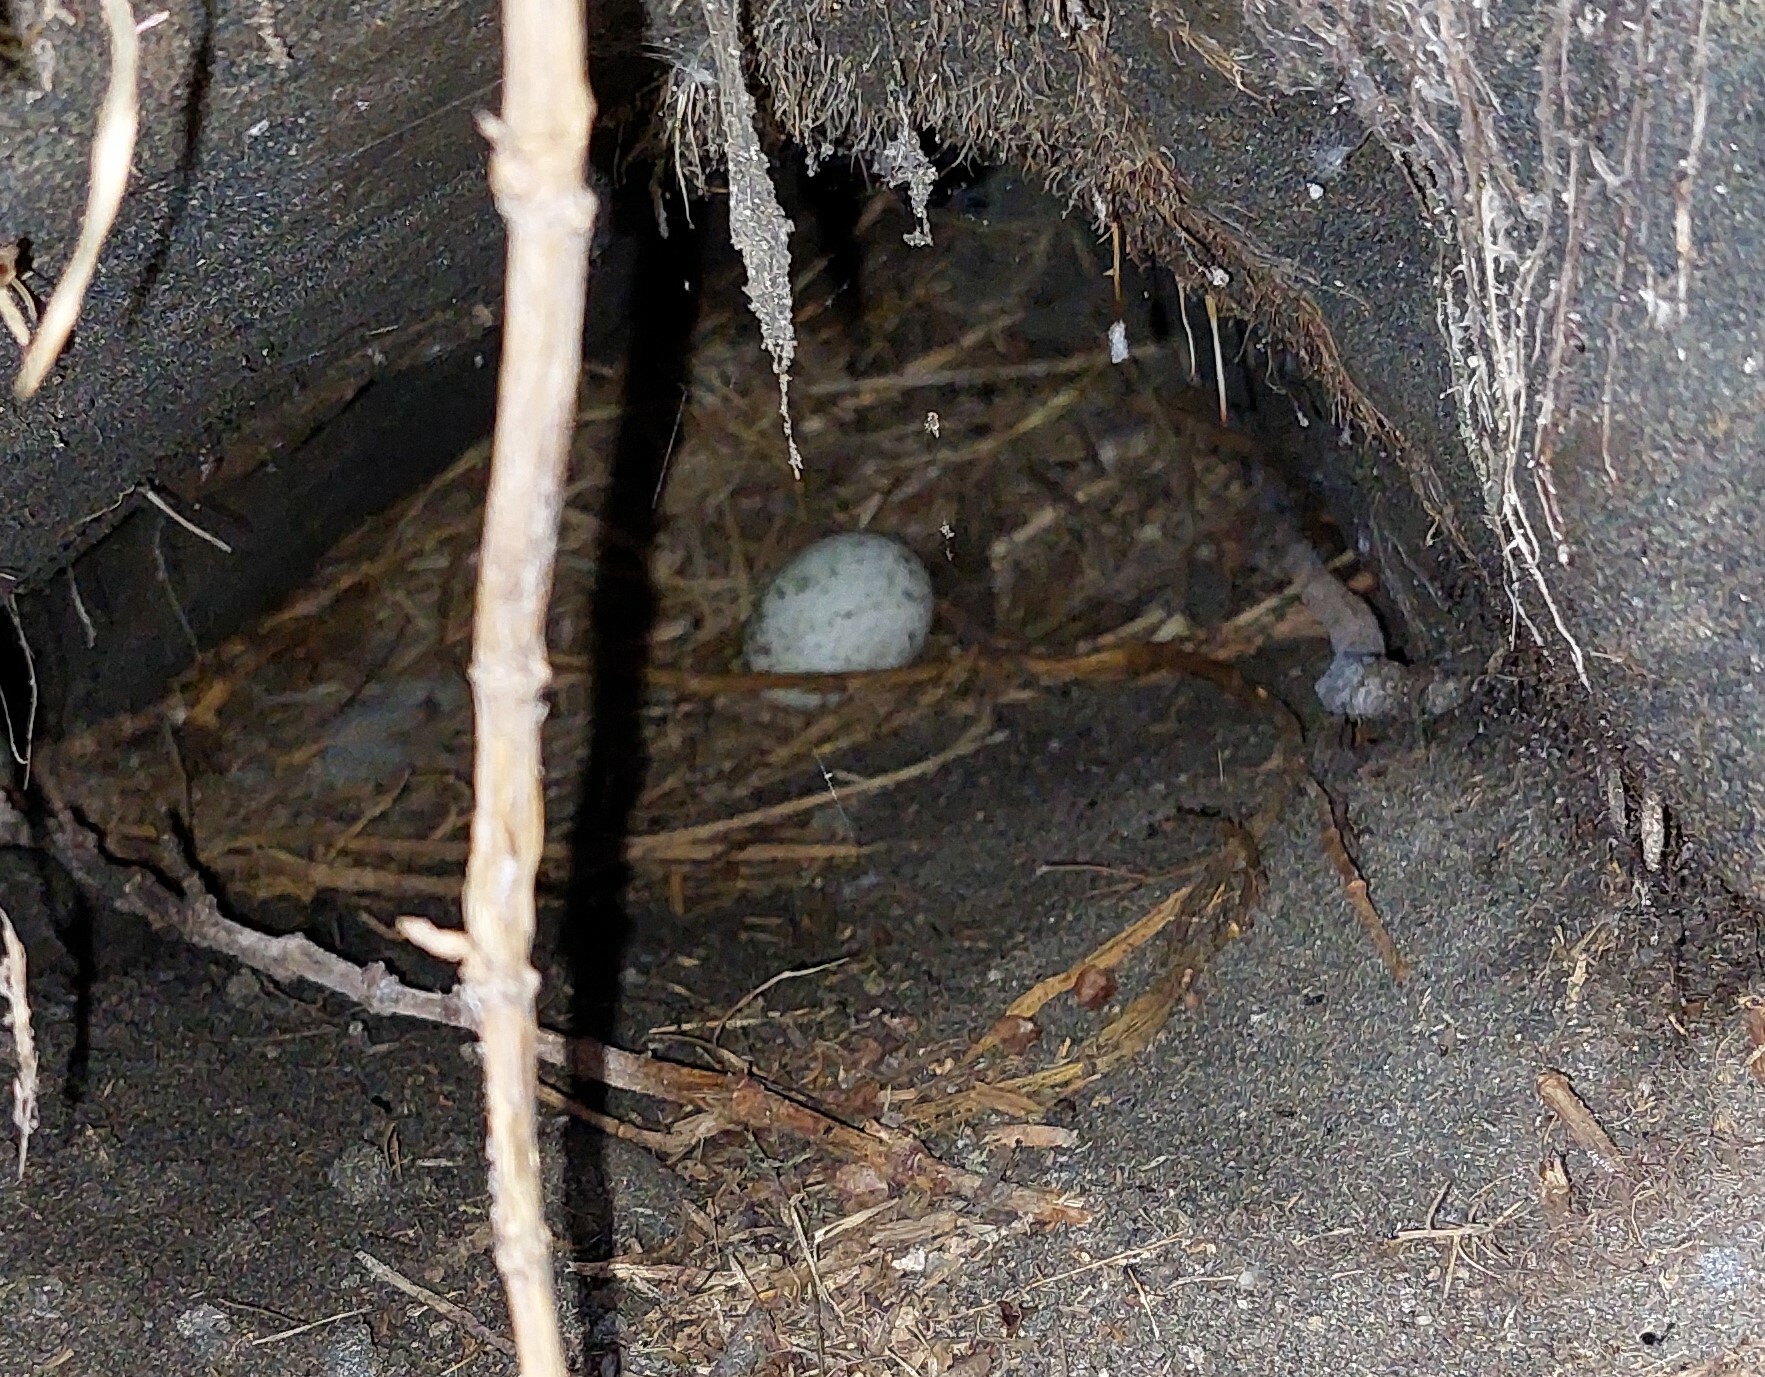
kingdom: Animalia
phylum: Chordata
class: Aves
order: Sphenisciformes
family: Spheniscidae
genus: Eudyptula
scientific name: Eudyptula minor
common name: Little penguin
